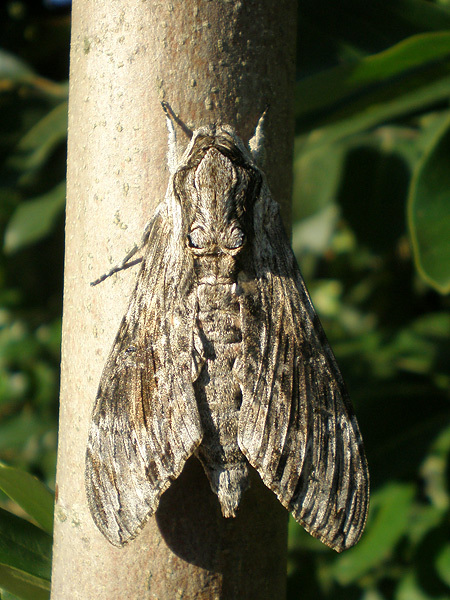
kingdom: Animalia
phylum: Arthropoda
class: Insecta
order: Lepidoptera
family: Sphingidae
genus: Agrius
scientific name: Agrius convolvuli
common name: Convolvulus hawkmoth
